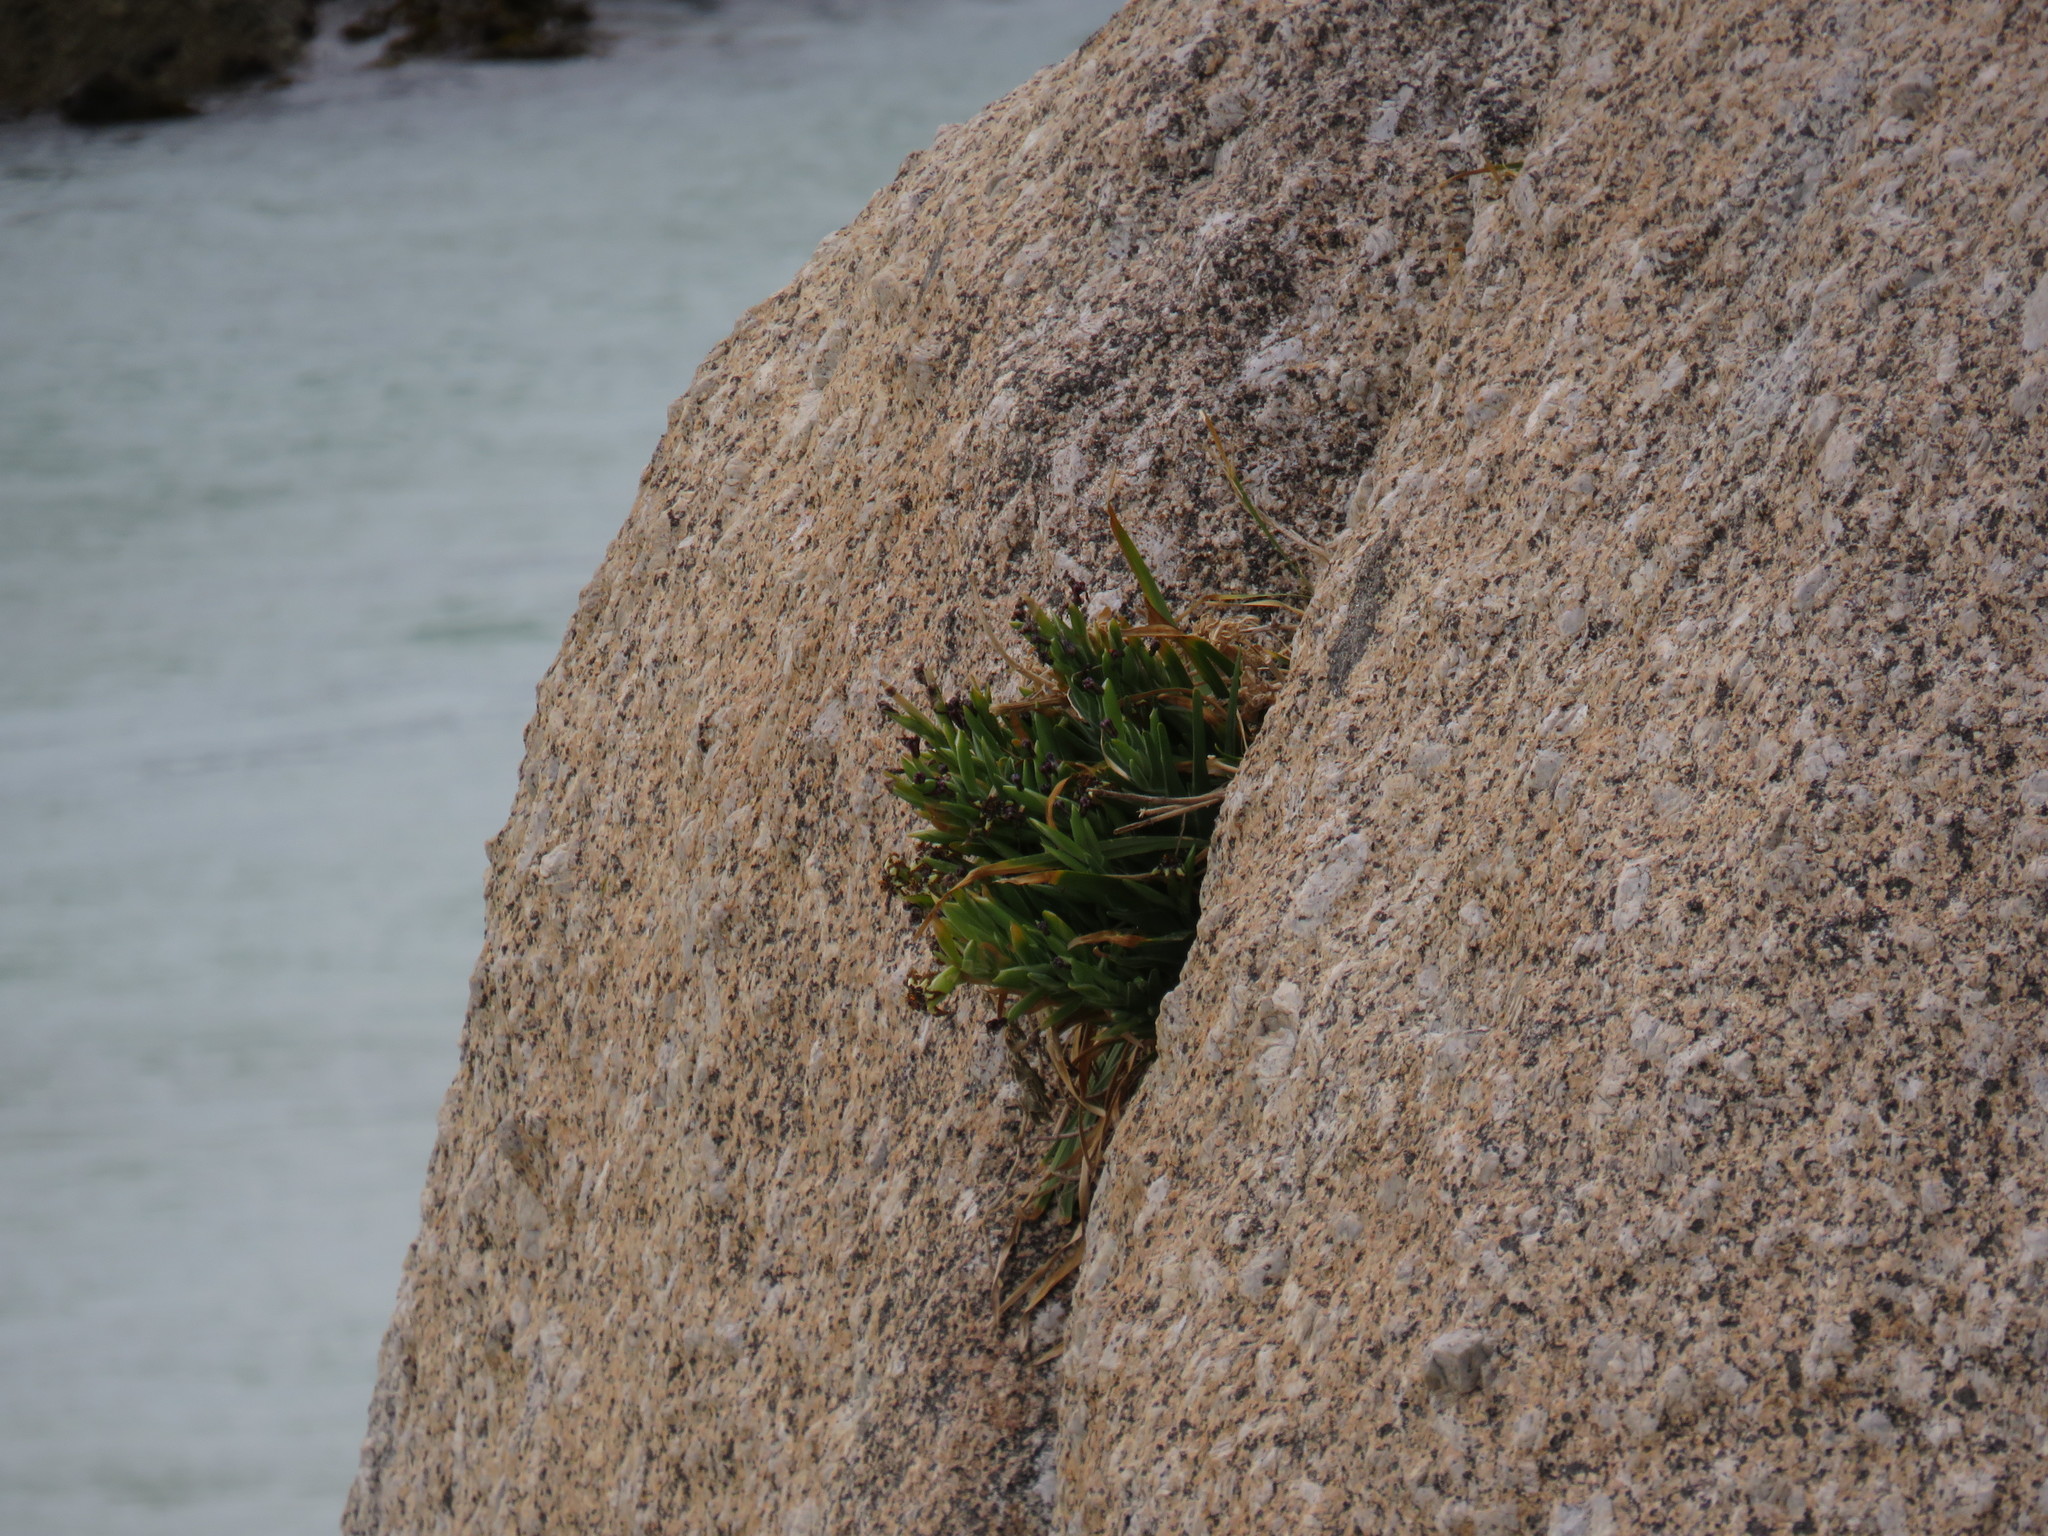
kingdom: Plantae
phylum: Tracheophyta
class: Liliopsida
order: Asparagales
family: Iridaceae
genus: Ferraria
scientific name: Ferraria crispa
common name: Black-flag
